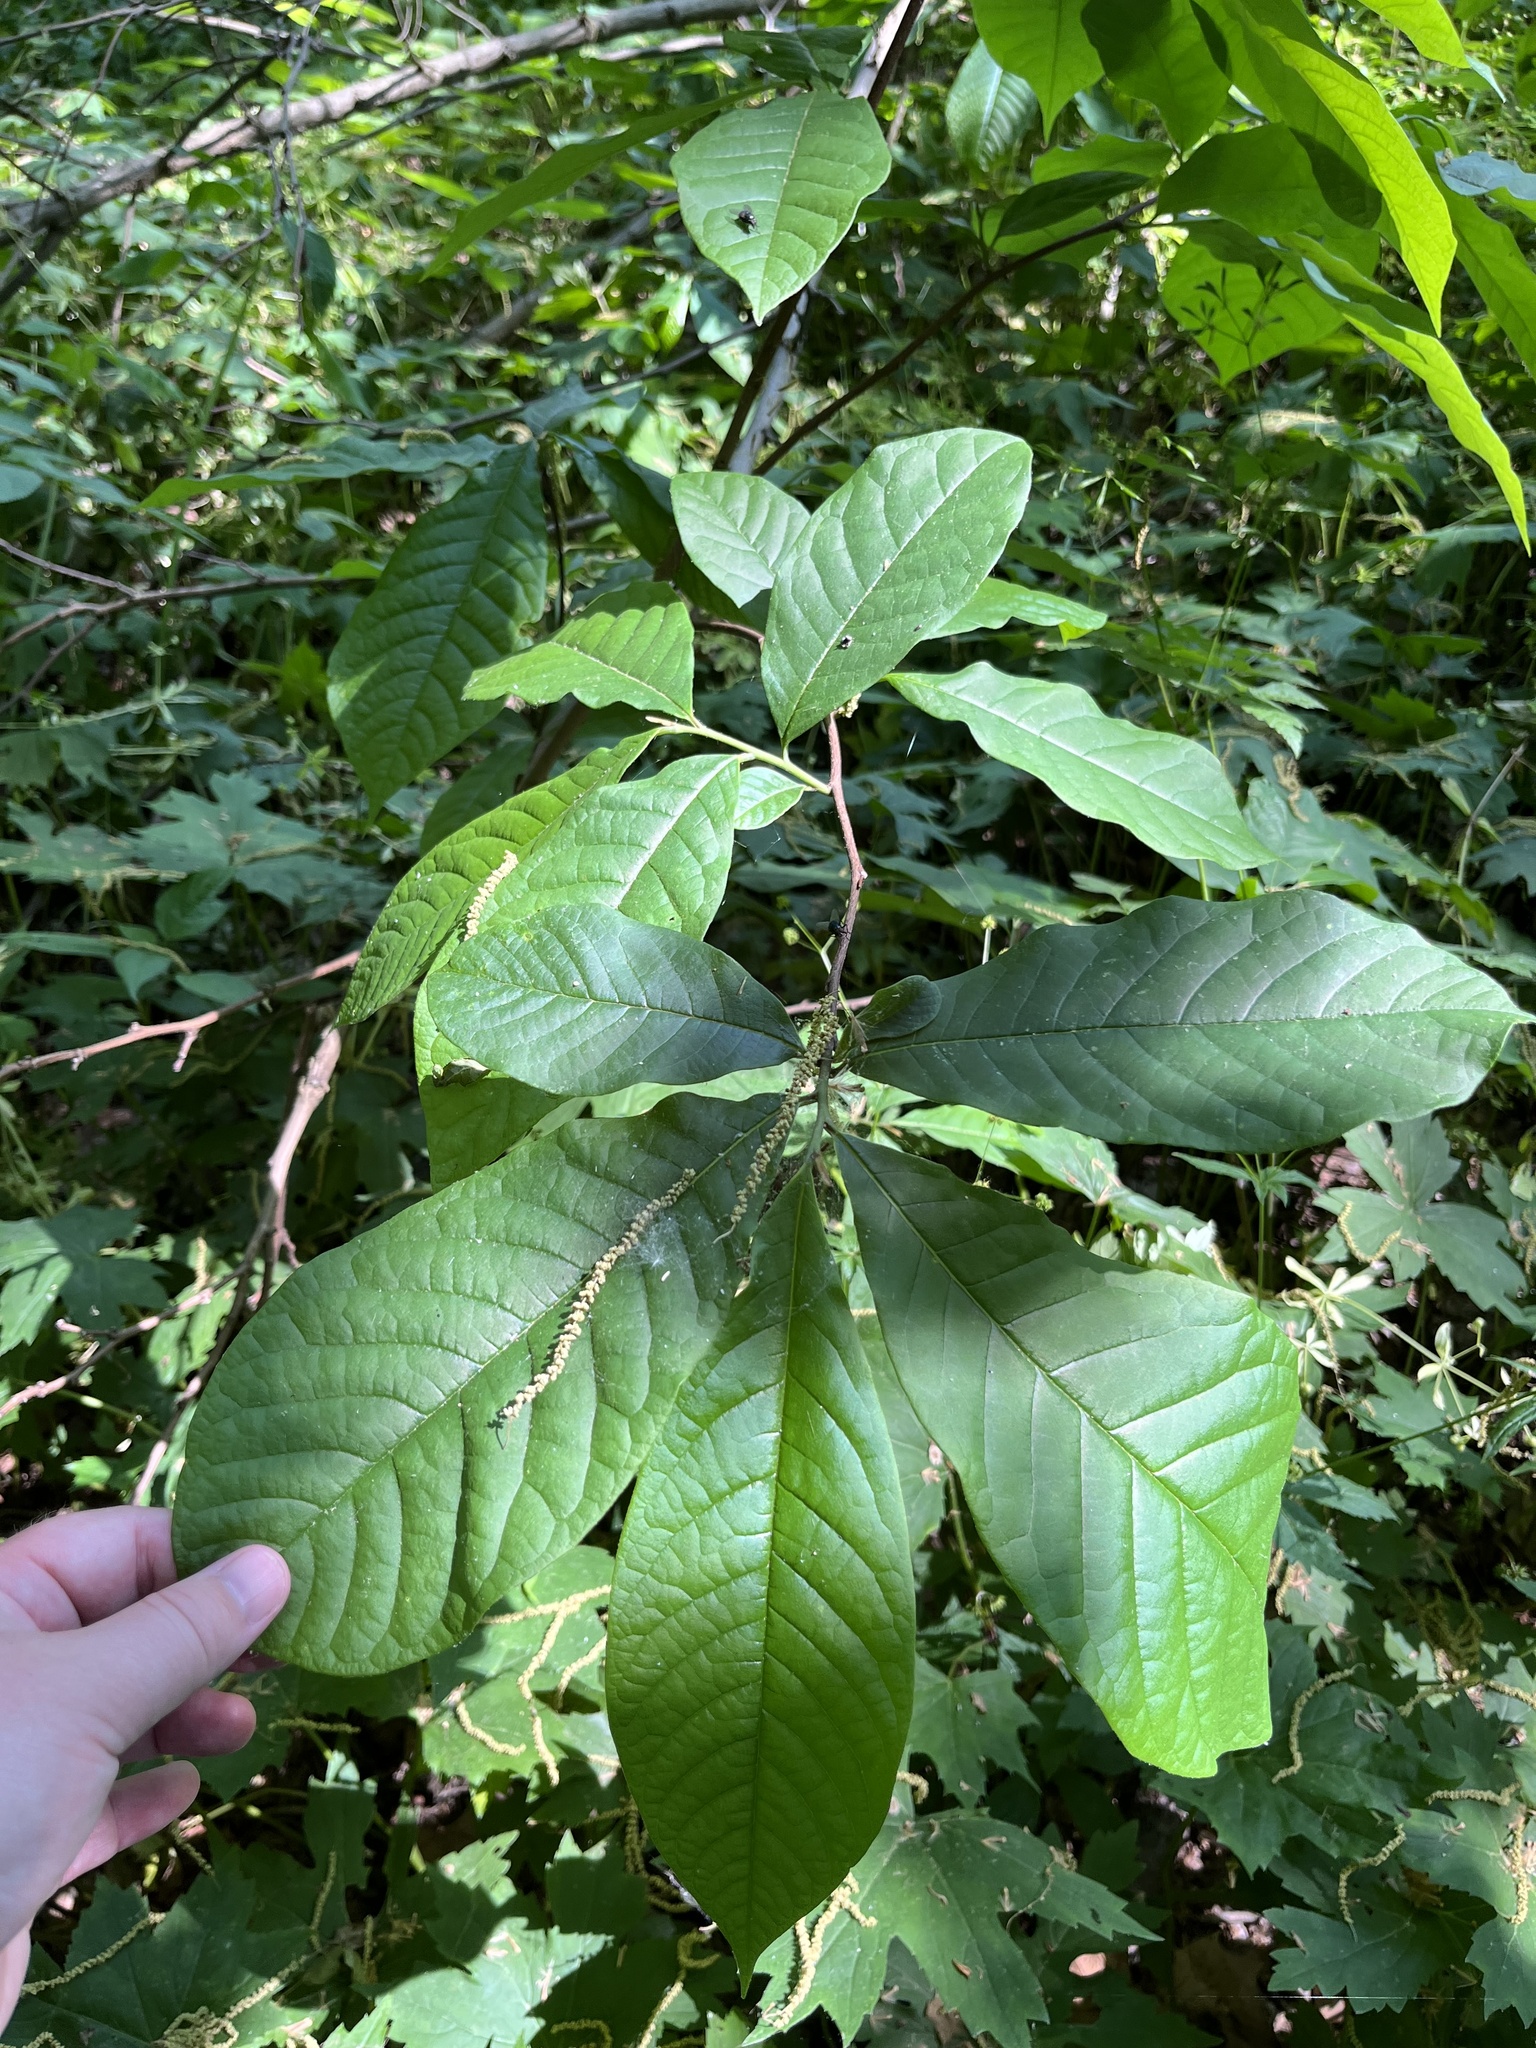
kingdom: Plantae
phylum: Tracheophyta
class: Magnoliopsida
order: Magnoliales
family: Annonaceae
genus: Asimina
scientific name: Asimina triloba
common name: Dog-banana
